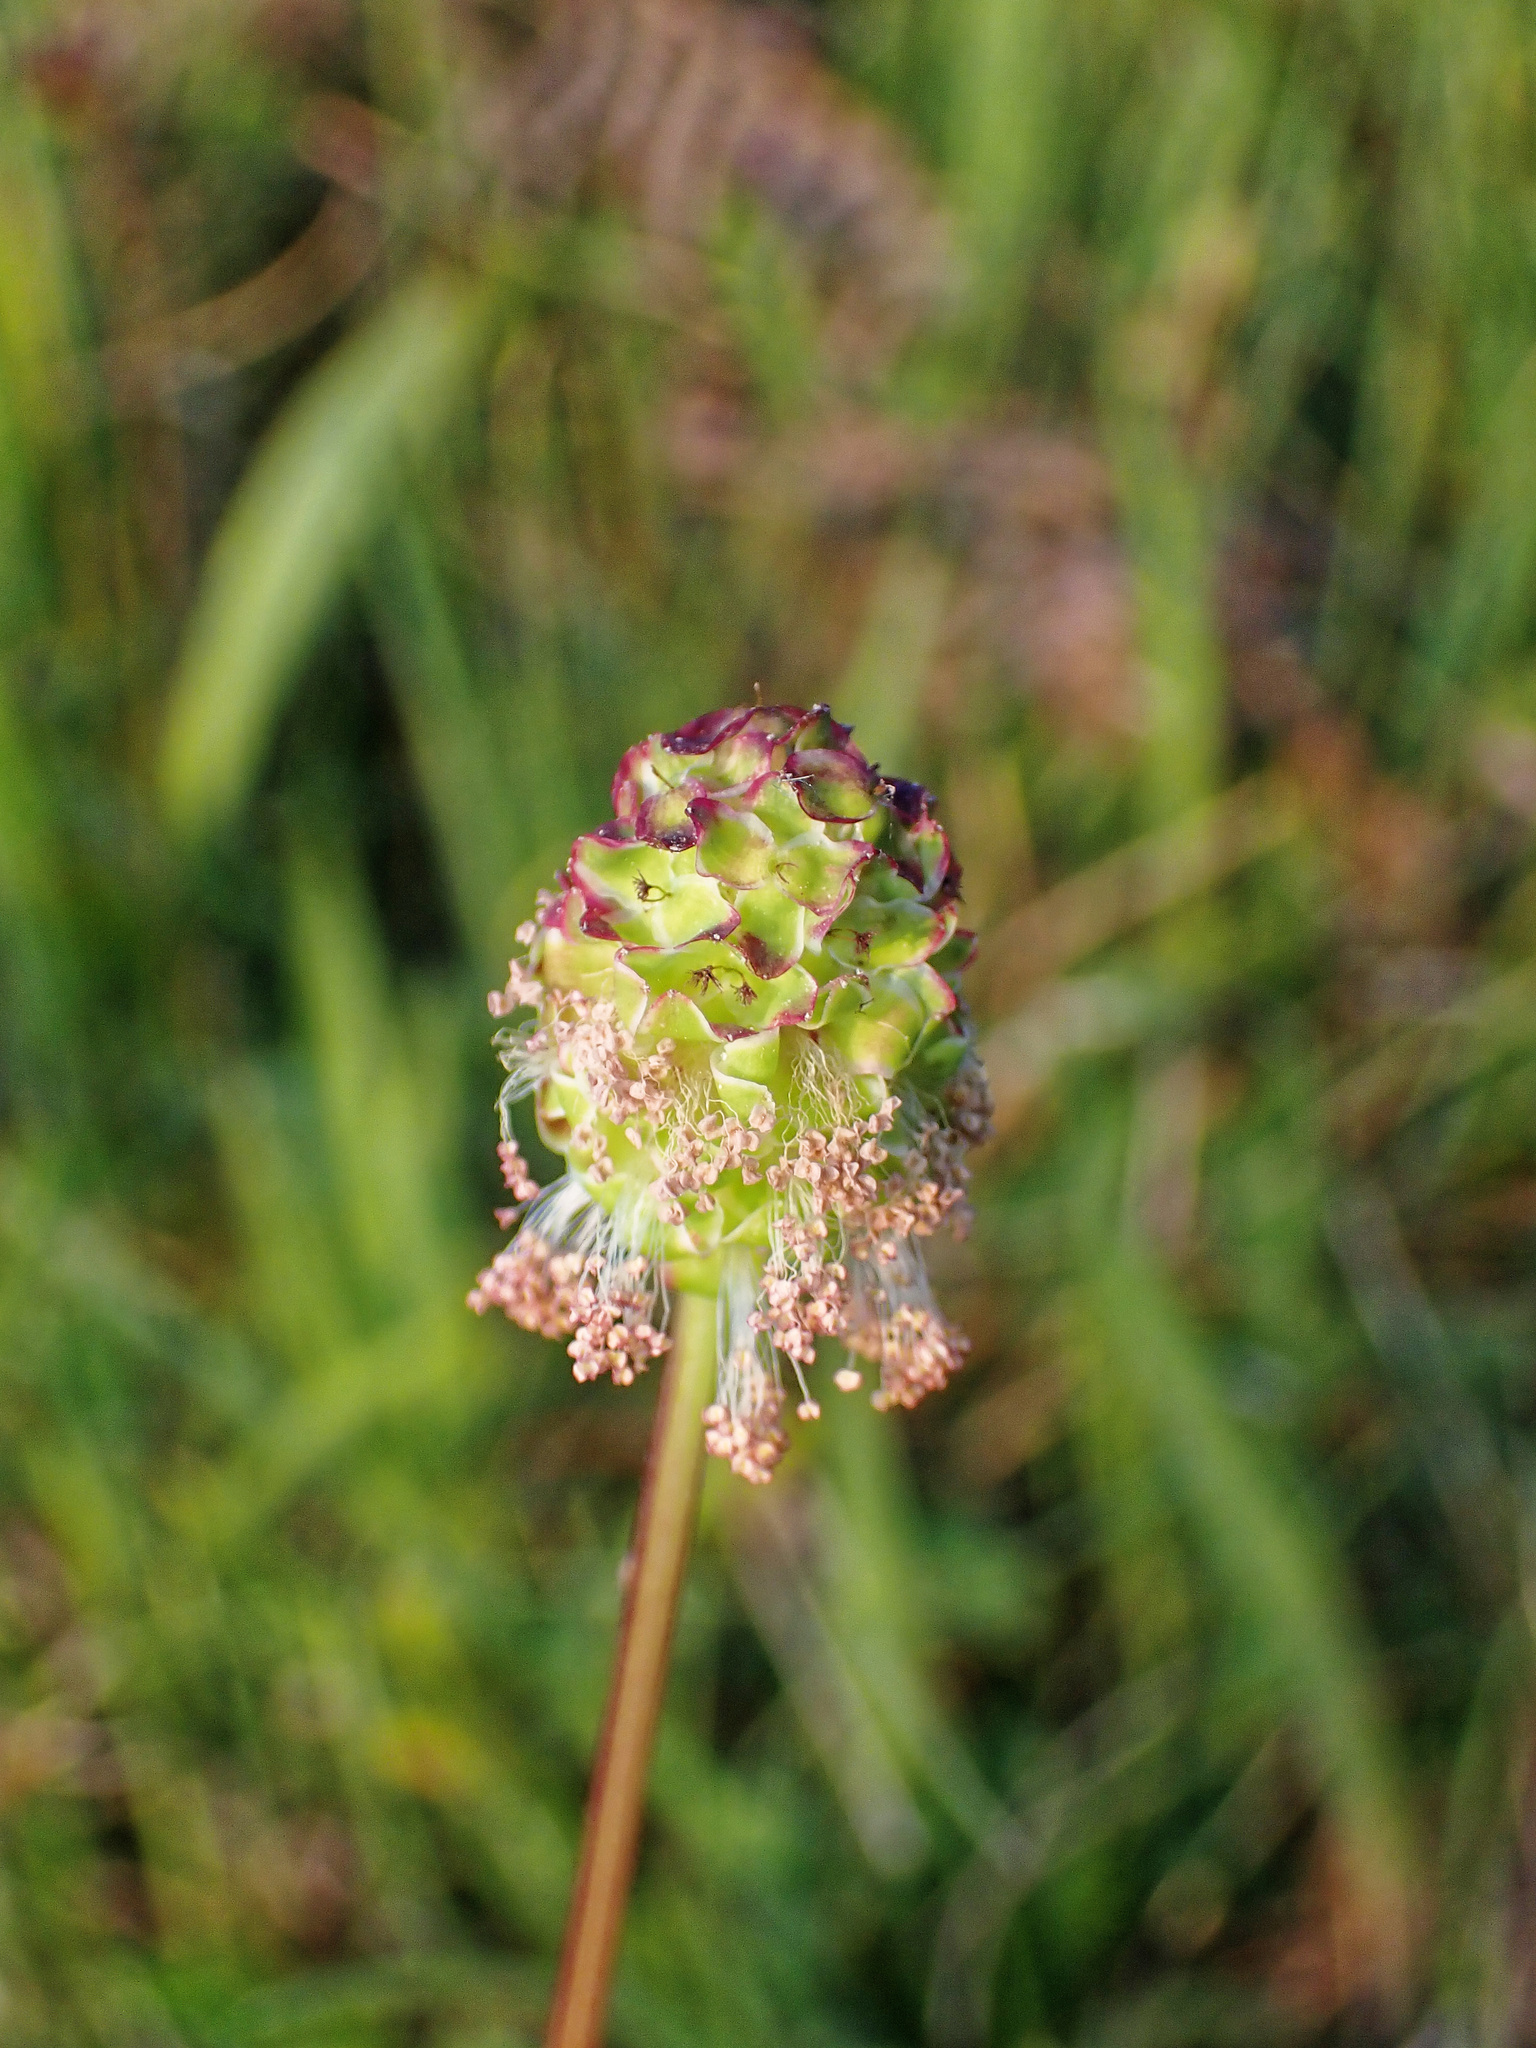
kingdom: Plantae
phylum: Tracheophyta
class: Magnoliopsida
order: Rosales
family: Rosaceae
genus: Poterium
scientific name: Poterium sanguisorba
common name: Salad burnet
